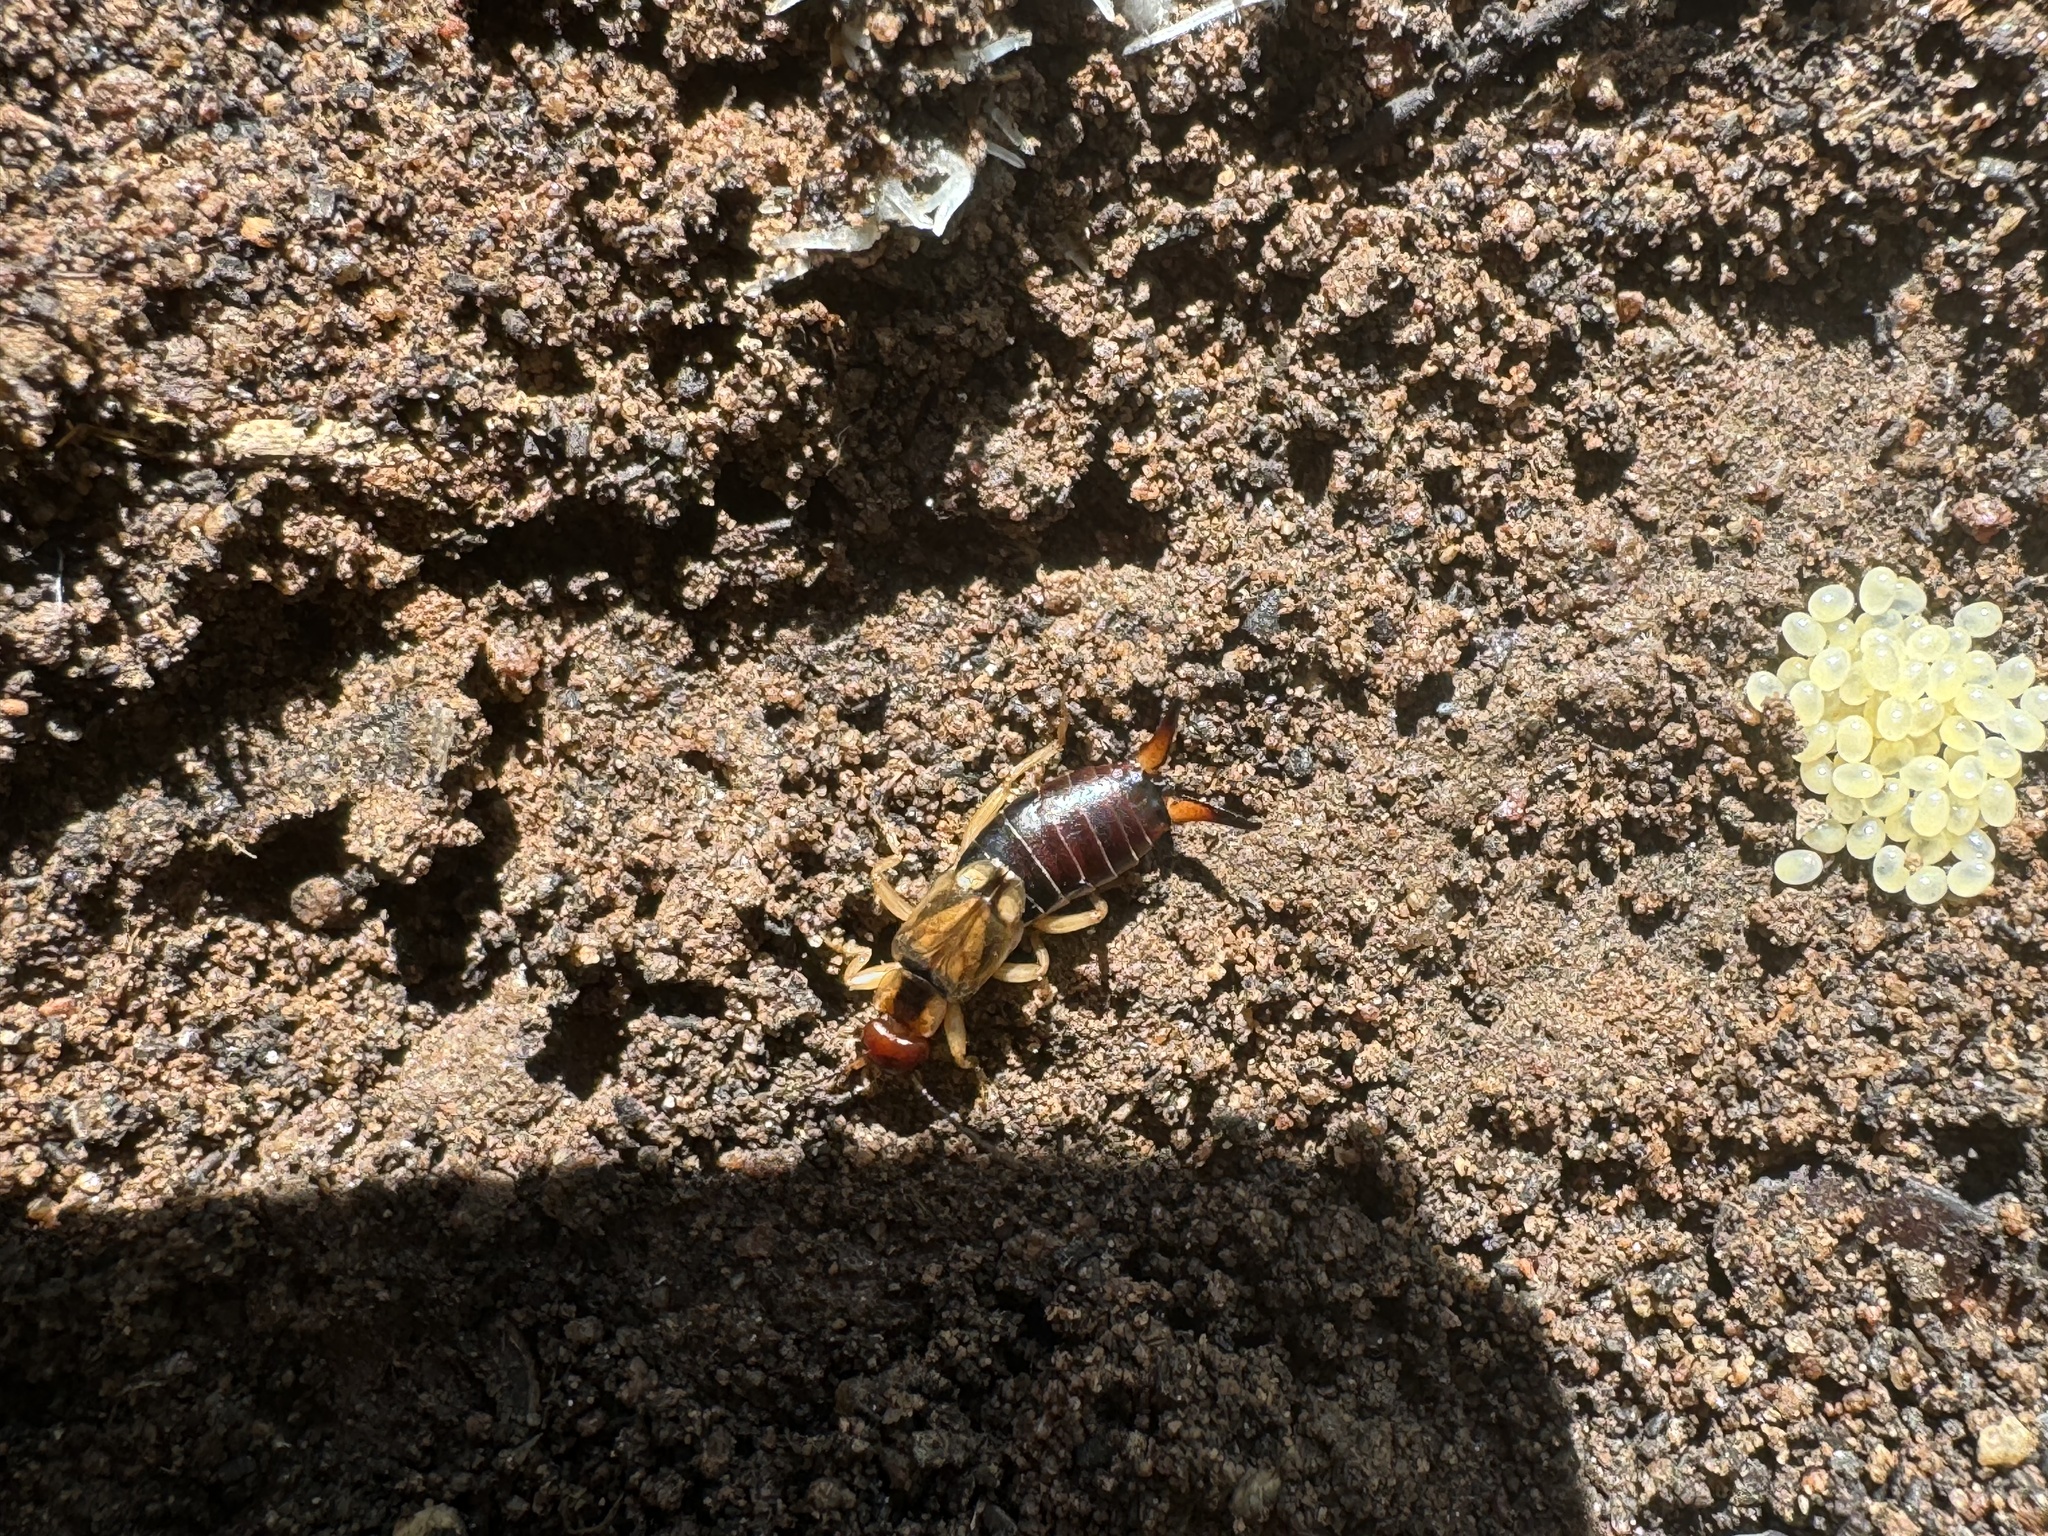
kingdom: Animalia
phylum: Arthropoda
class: Insecta
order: Dermaptera
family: Forficulidae
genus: Forficula
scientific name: Forficula dentata
